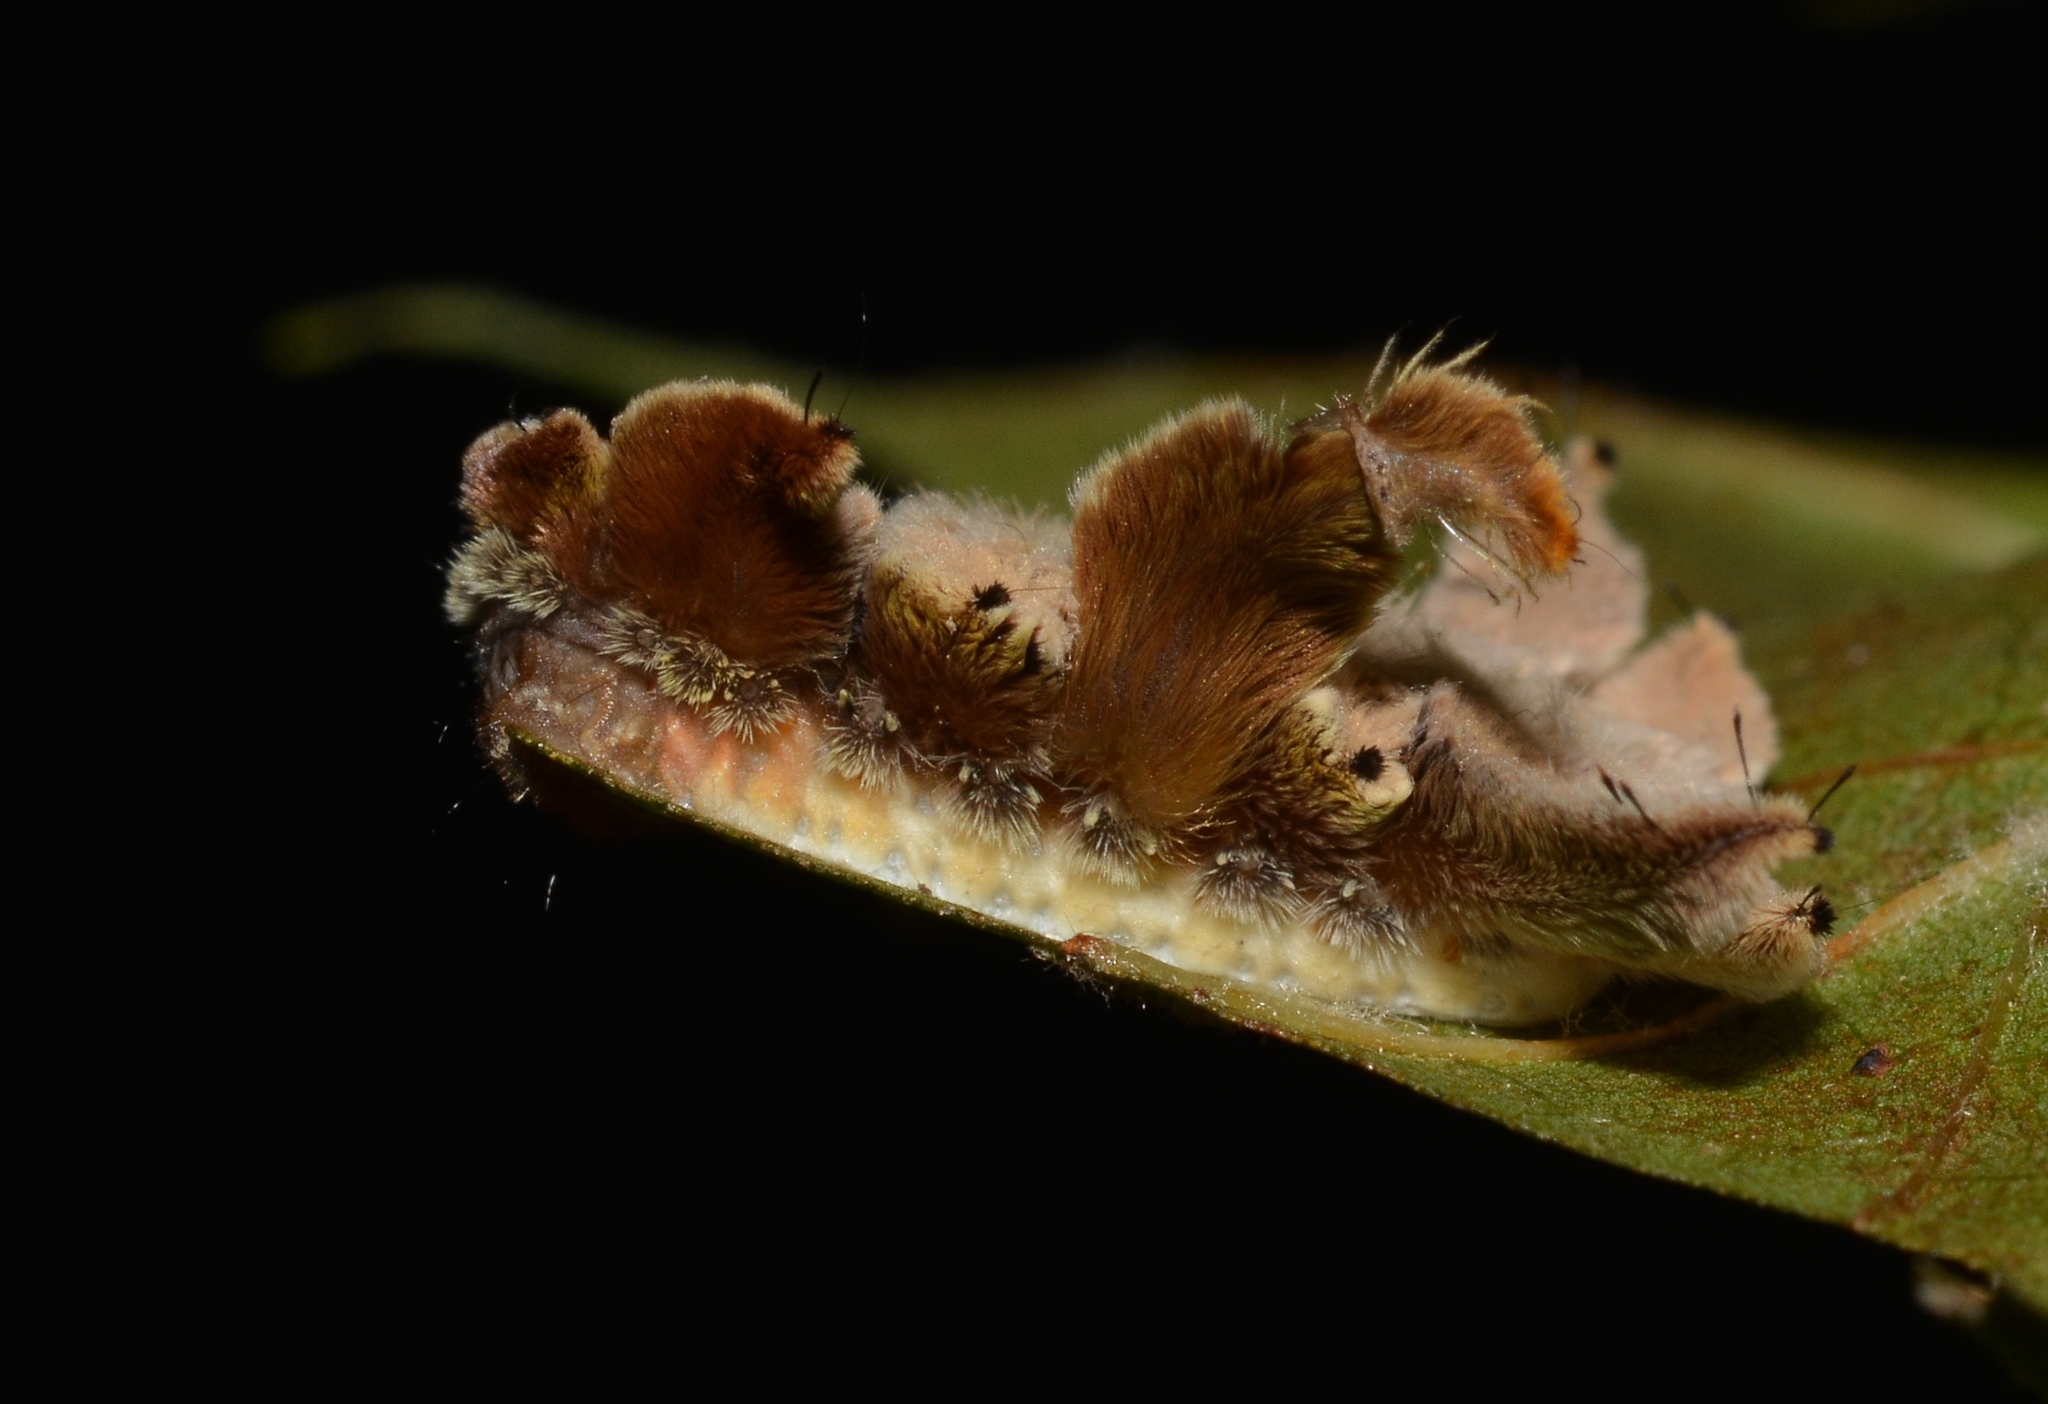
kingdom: Animalia
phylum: Arthropoda
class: Insecta
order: Lepidoptera
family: Limacodidae
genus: Phobetron
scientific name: Phobetron pithecium
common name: Hag moth
